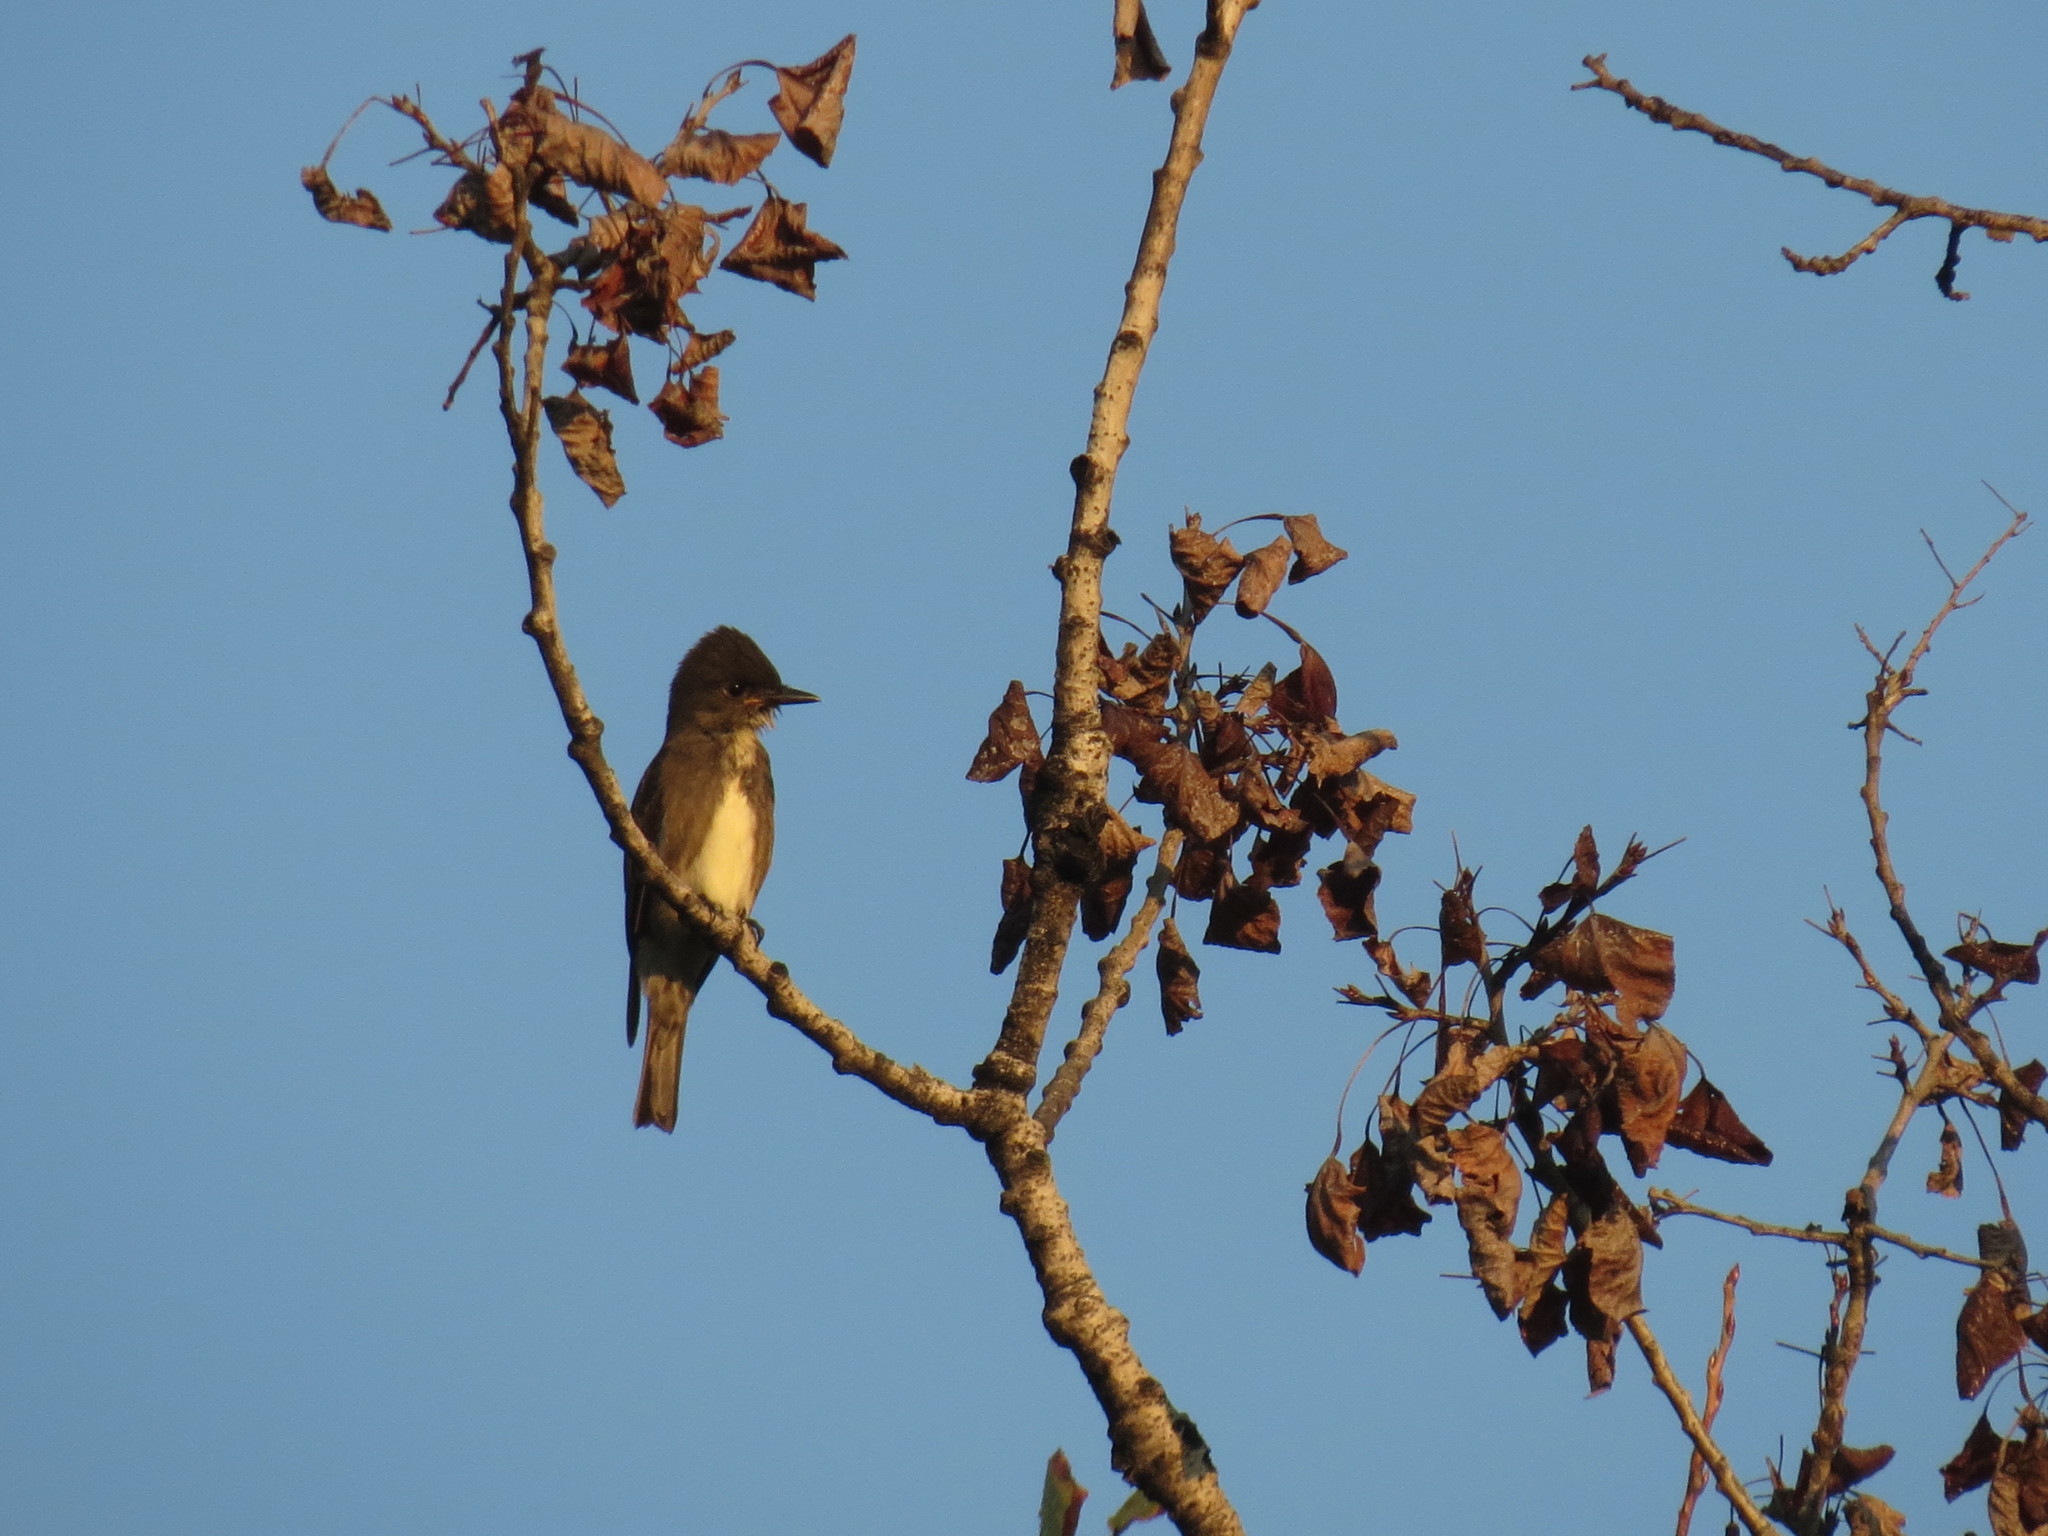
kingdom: Animalia
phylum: Chordata
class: Aves
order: Passeriformes
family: Tyrannidae
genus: Contopus
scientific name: Contopus cooperi
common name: Olive-sided flycatcher
